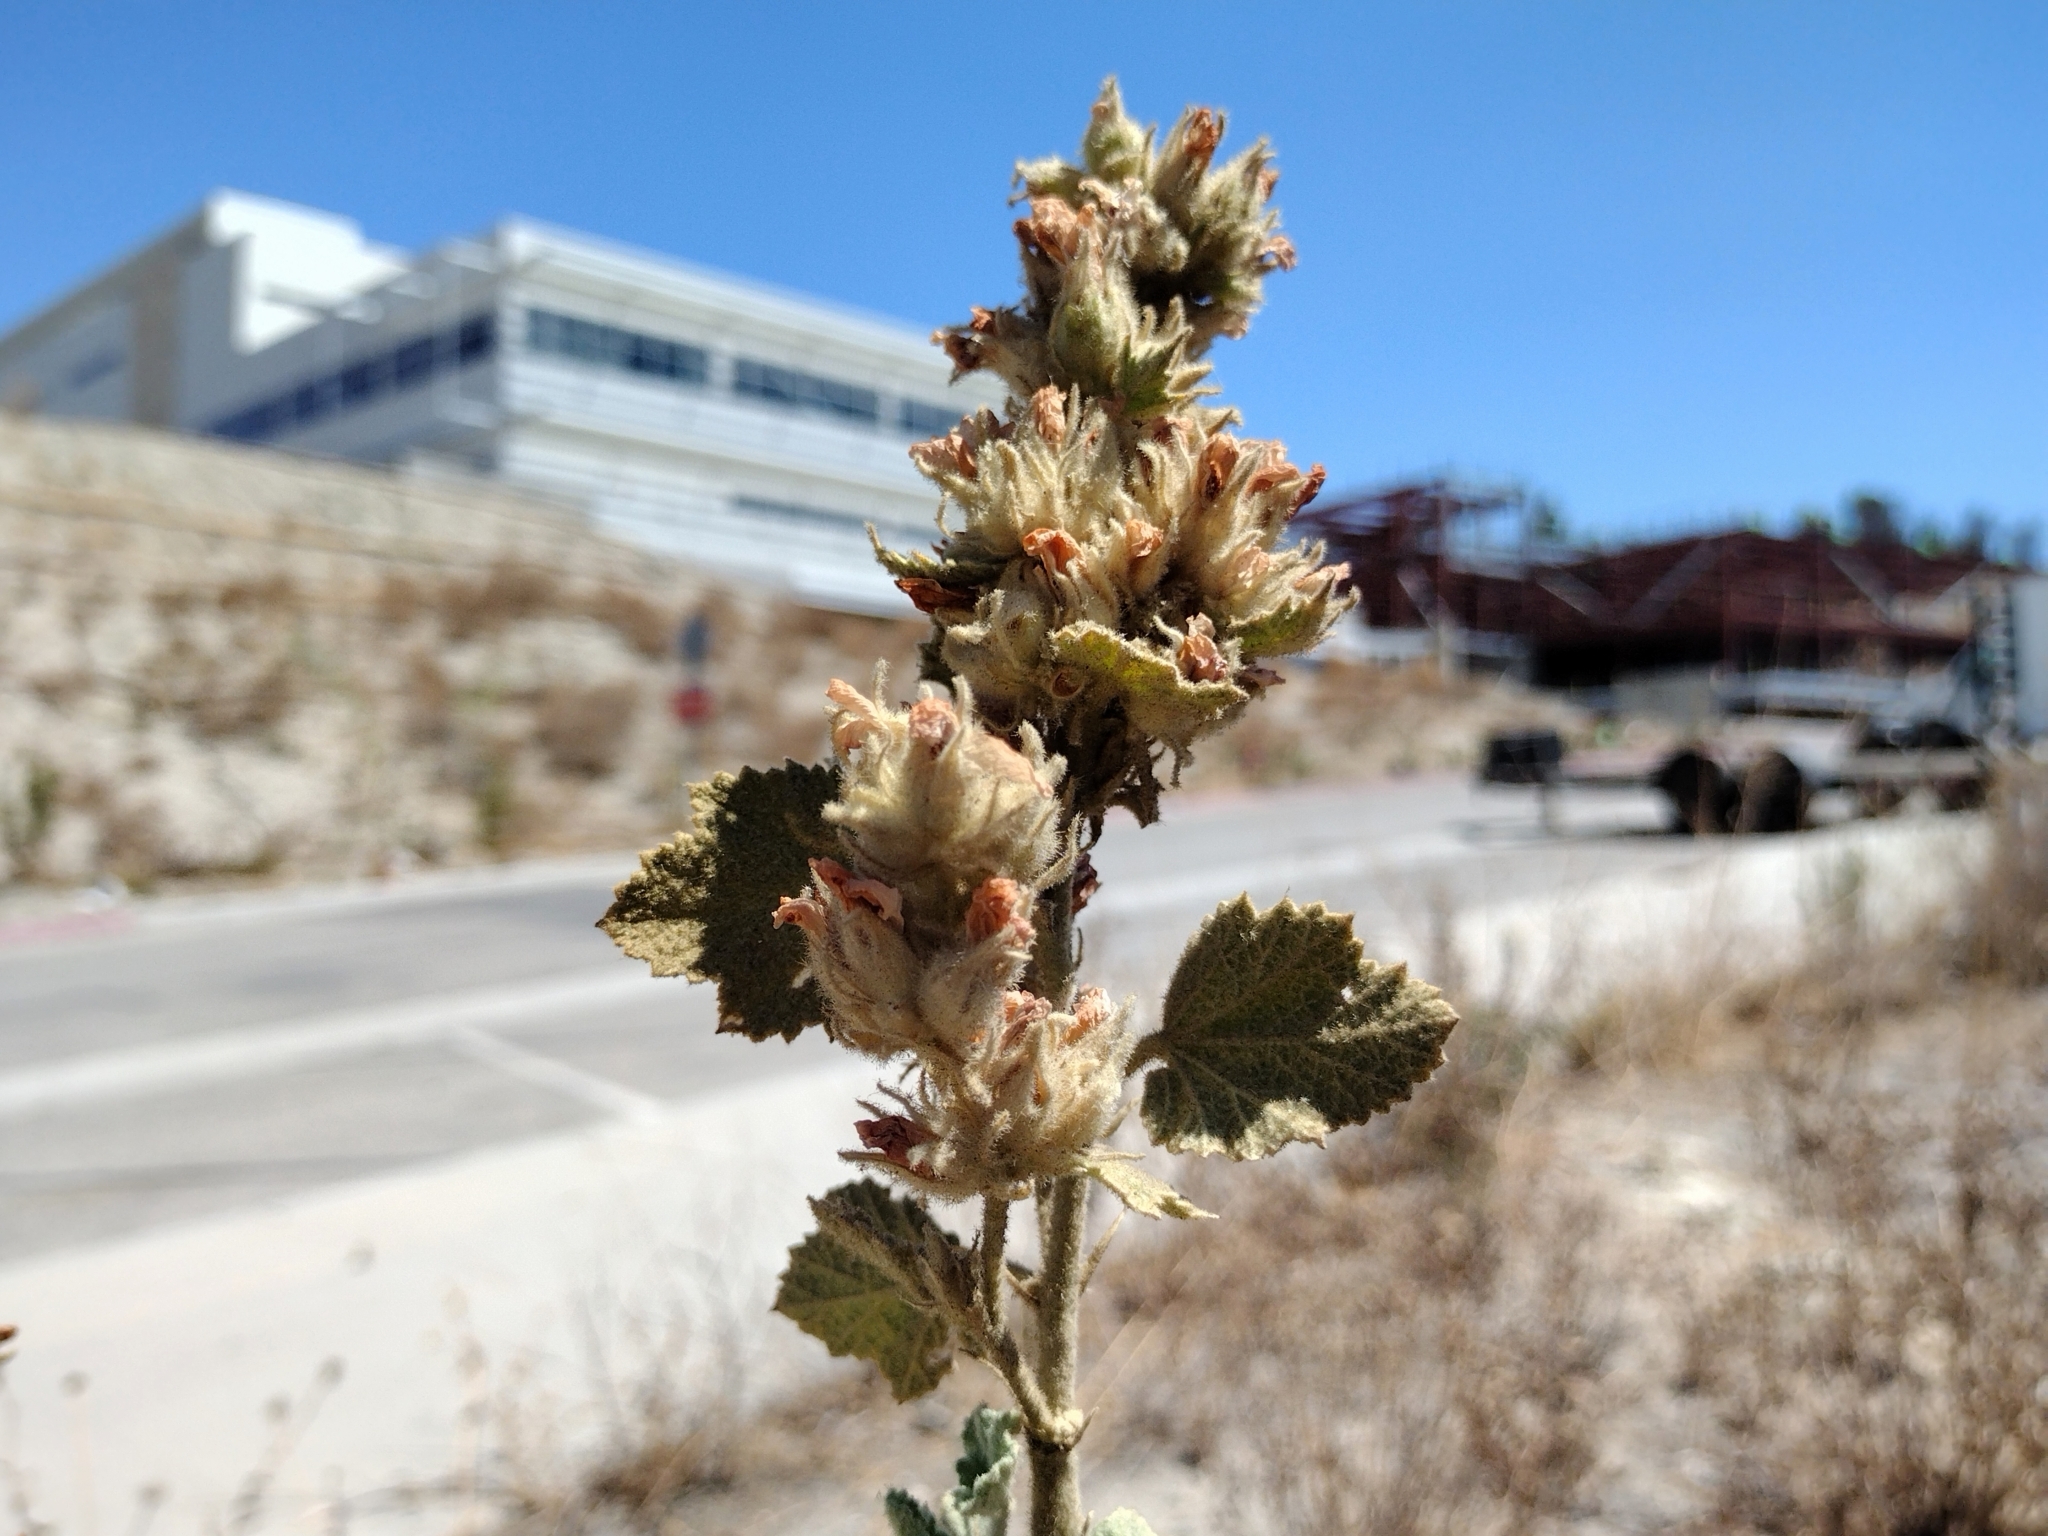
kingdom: Plantae
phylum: Tracheophyta
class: Magnoliopsida
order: Malvales
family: Malvaceae
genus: Malacothamnus
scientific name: Malacothamnus marrubioides
